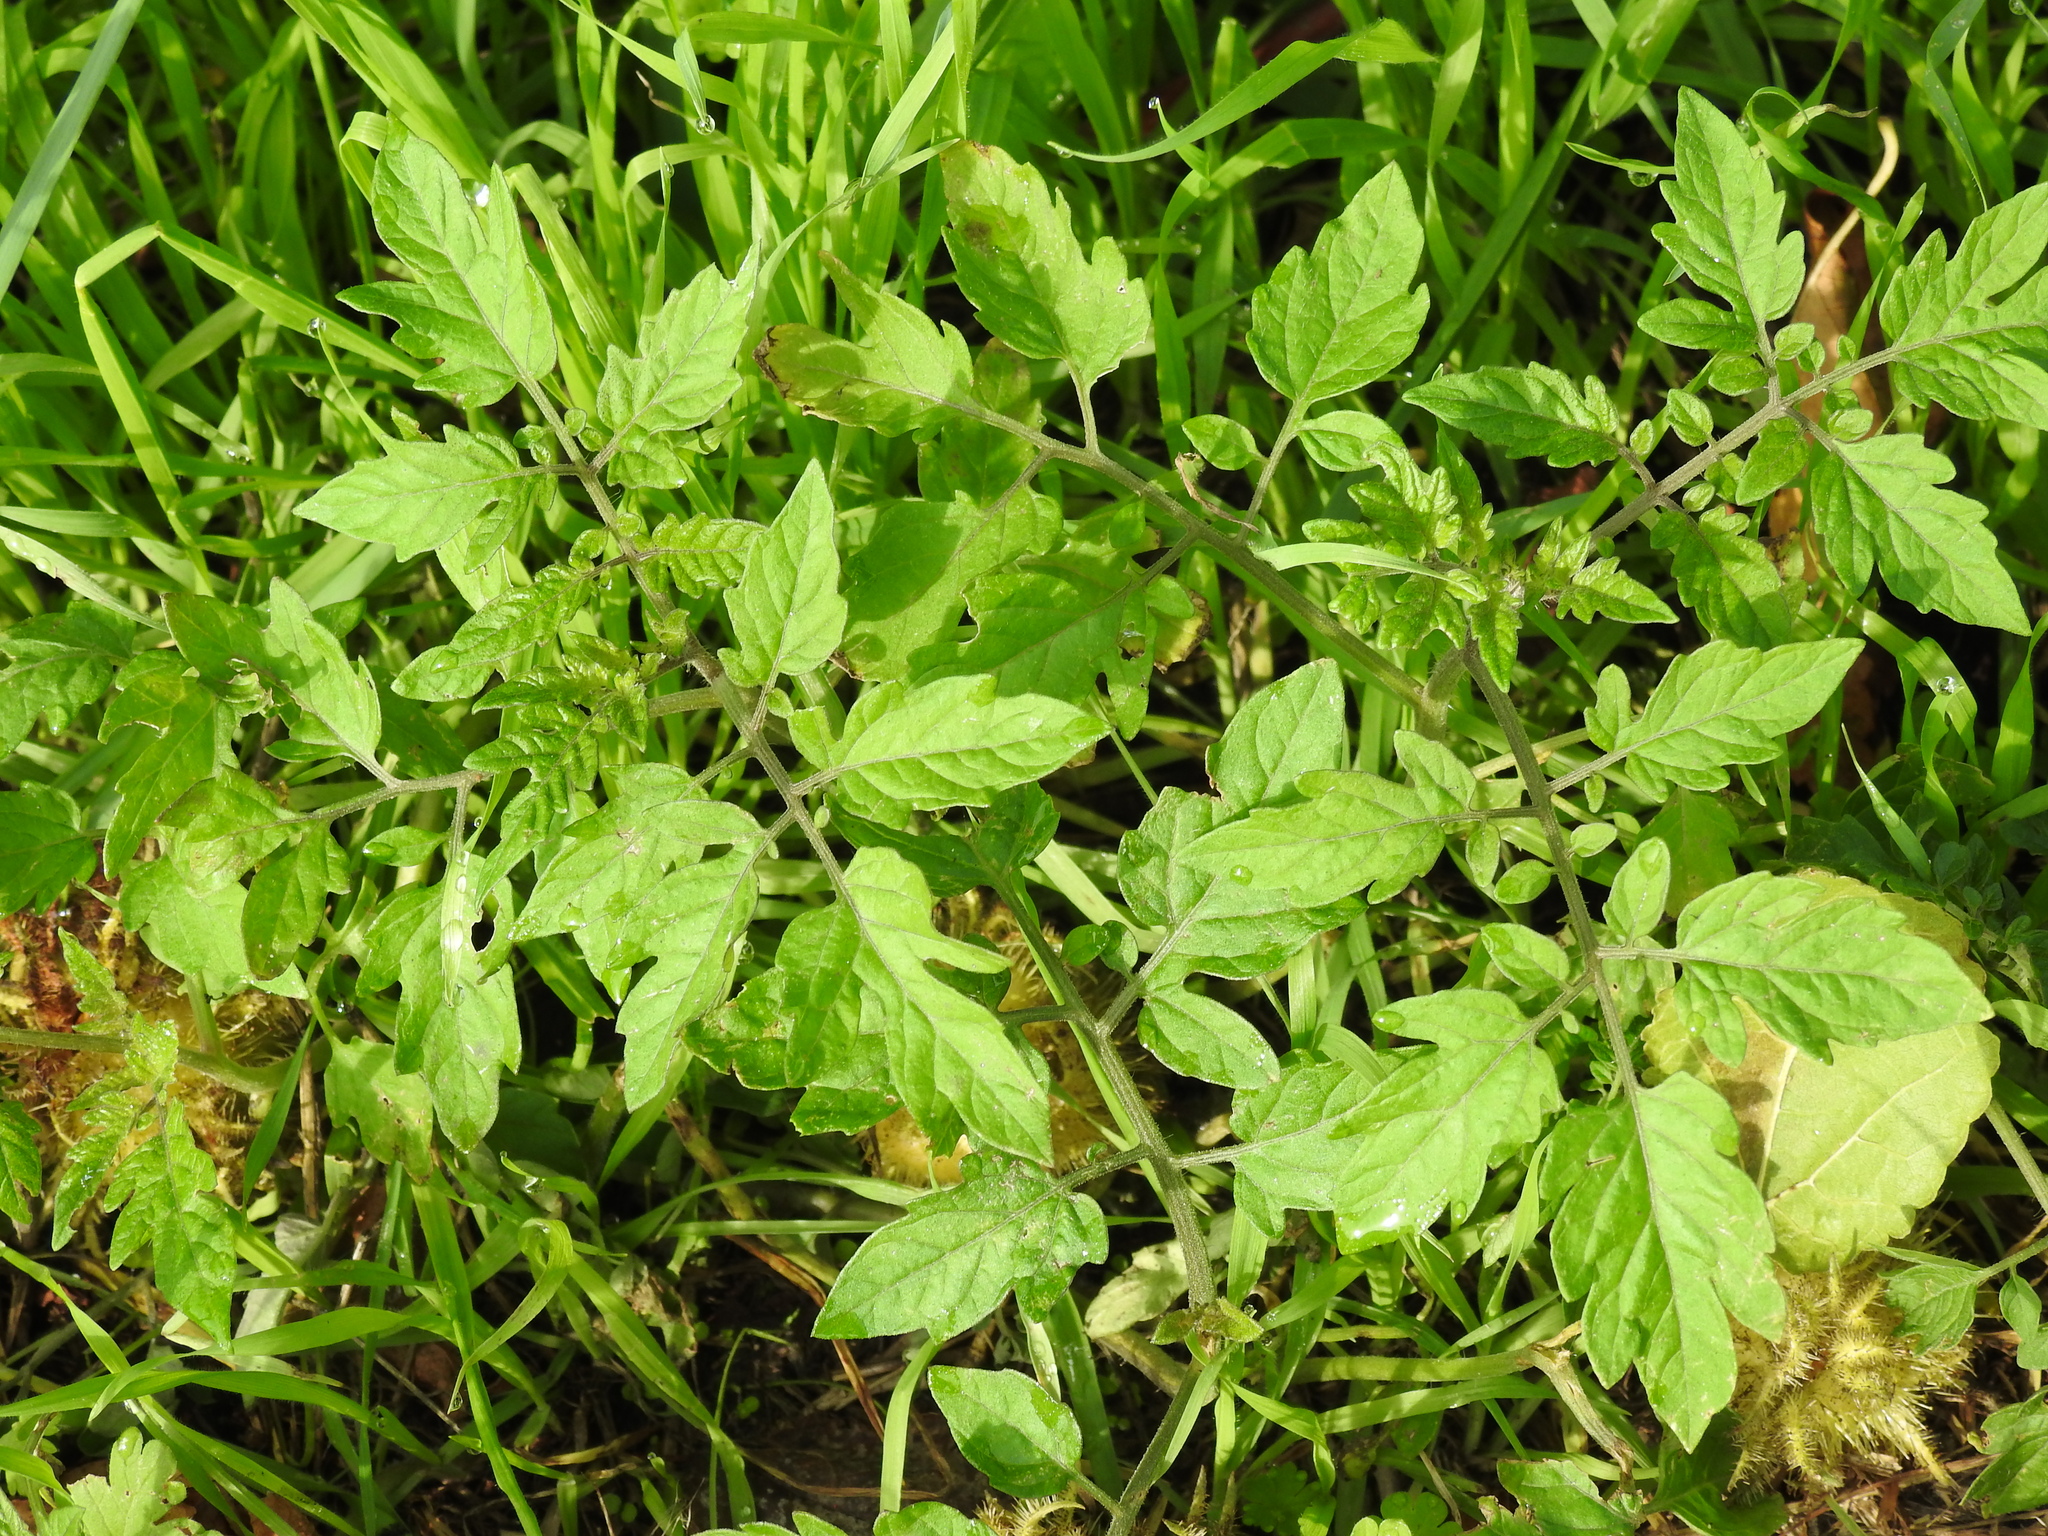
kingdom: Plantae
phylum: Tracheophyta
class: Magnoliopsida
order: Solanales
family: Solanaceae
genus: Solanum
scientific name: Solanum lycopersicum
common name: Garden tomato
